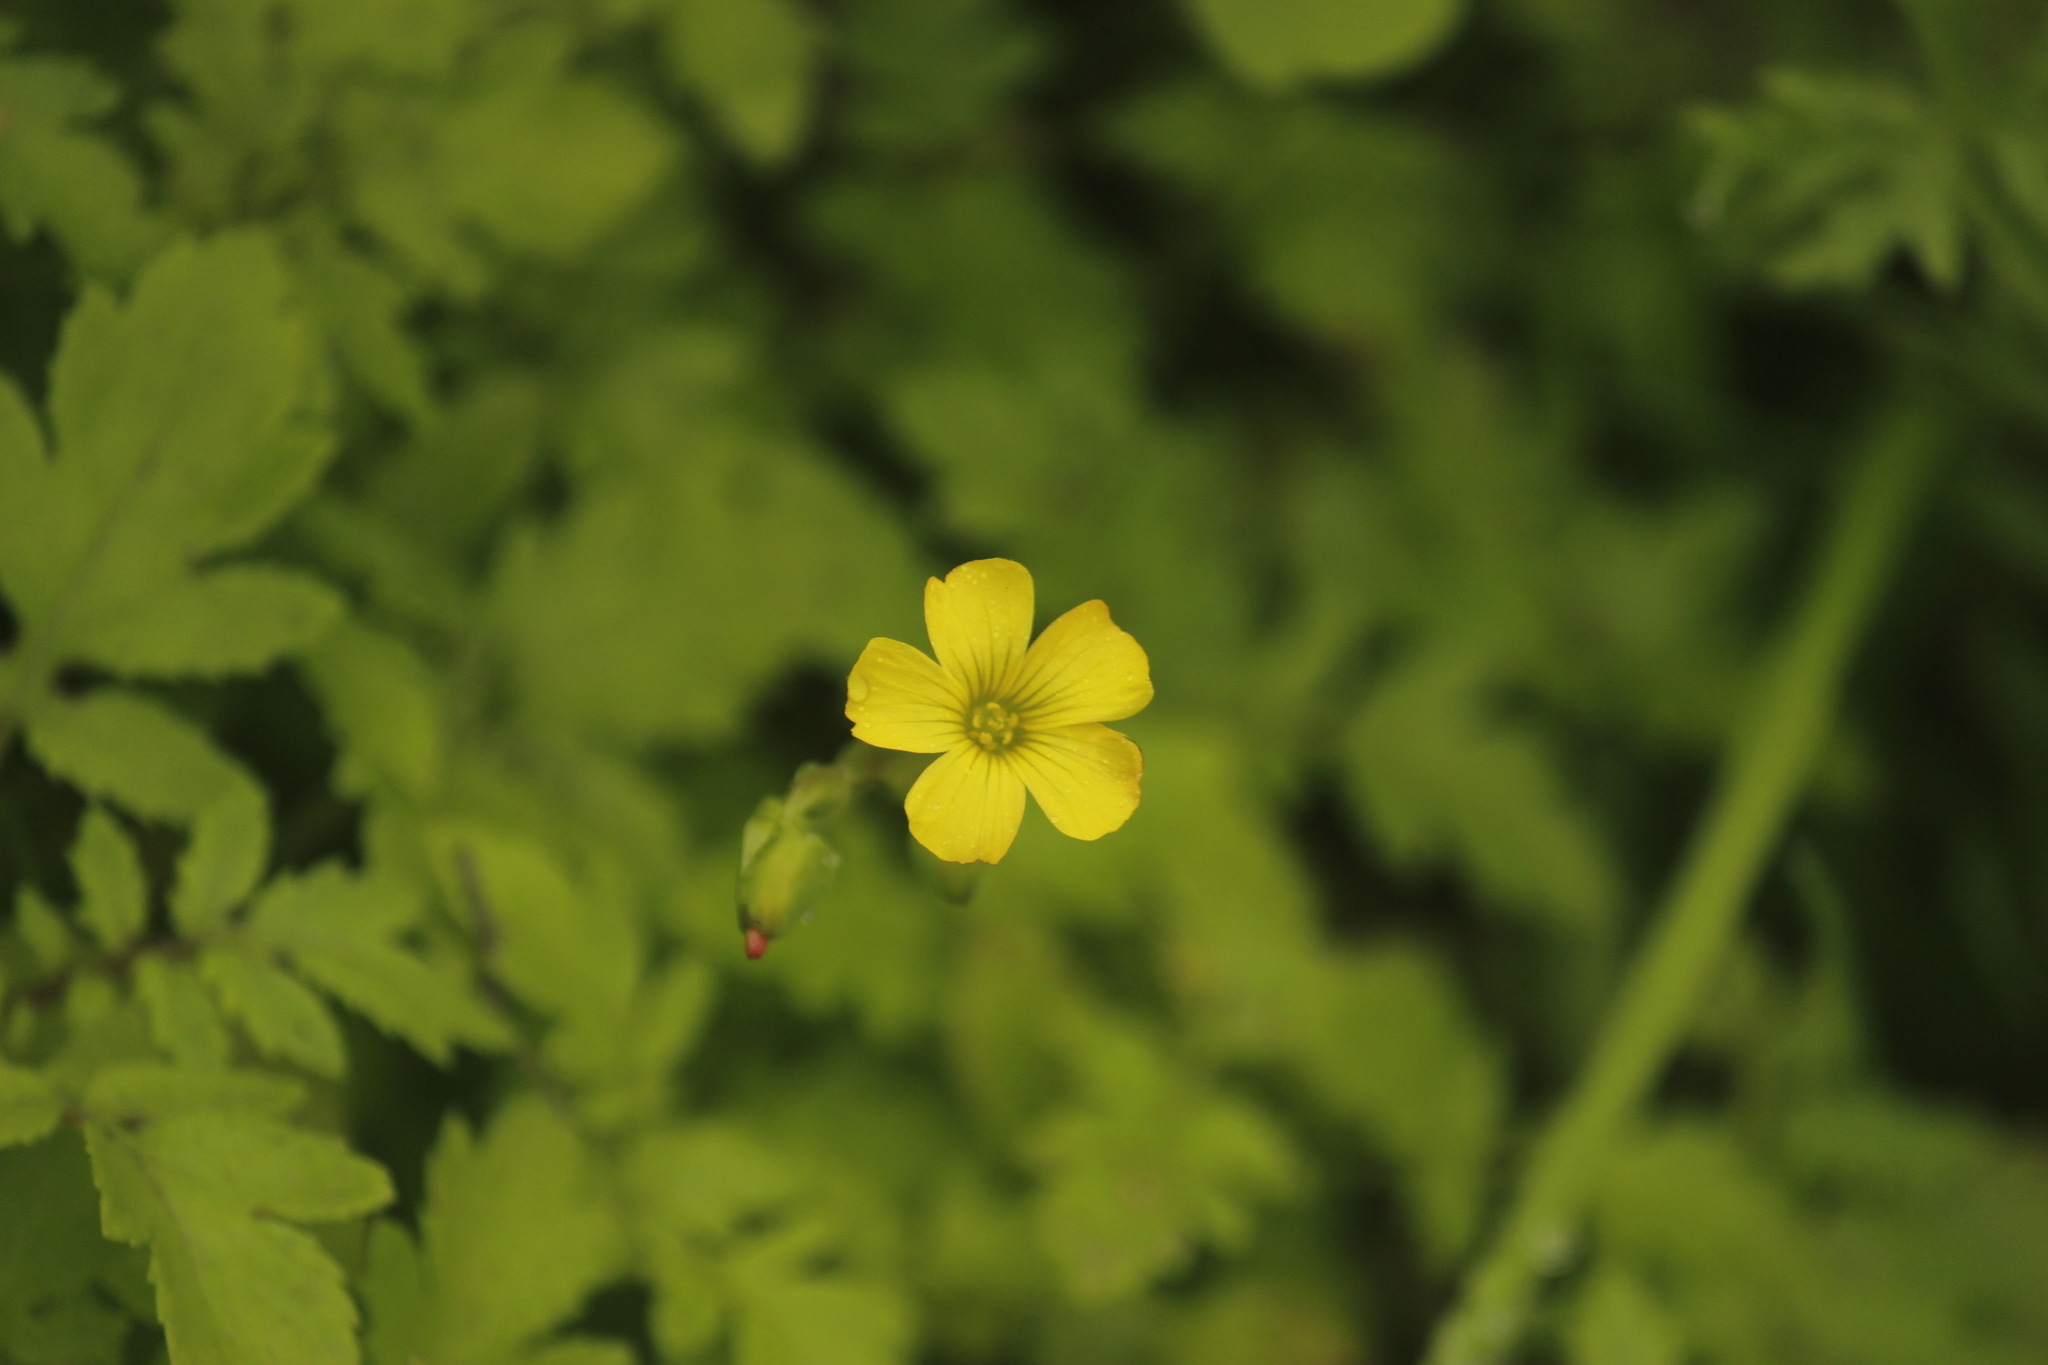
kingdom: Plantae
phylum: Tracheophyta
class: Magnoliopsida
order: Oxalidales
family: Oxalidaceae
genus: Oxalis
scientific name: Oxalis megalorrhiza
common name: Fleshy yellow-sorrel
